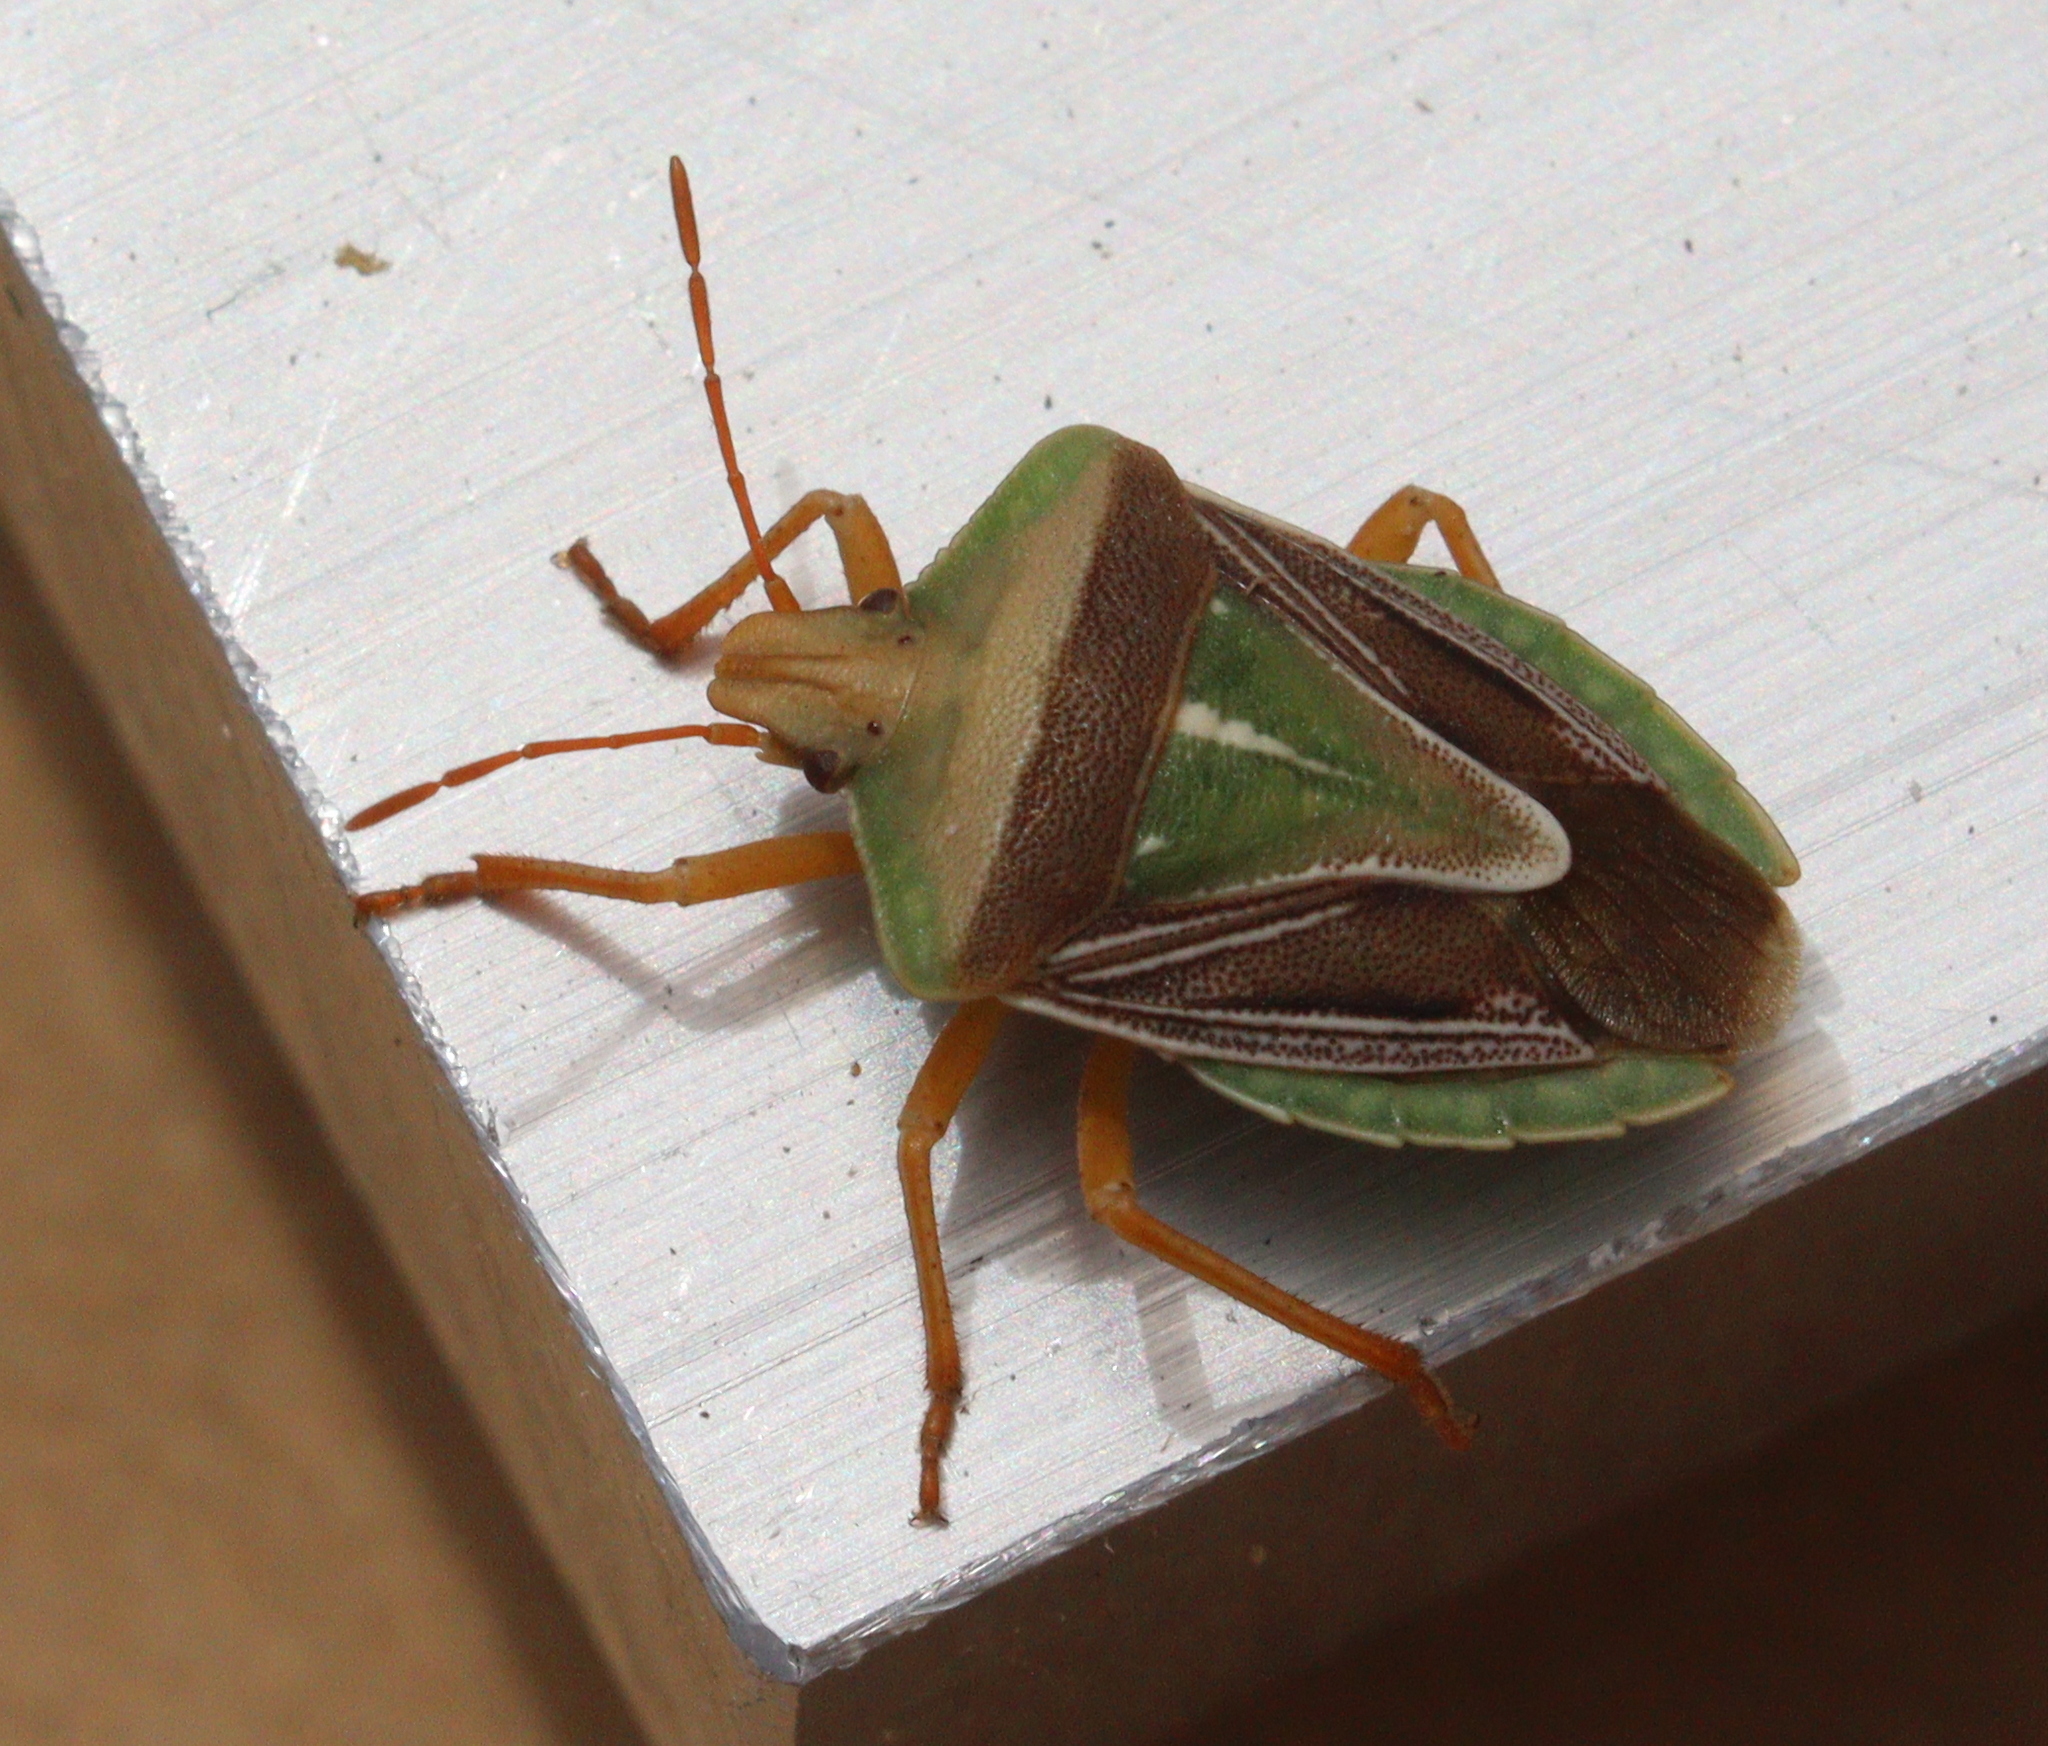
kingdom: Animalia
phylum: Arthropoda
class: Insecta
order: Hemiptera
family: Pentatomidae
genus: Acledra
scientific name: Acledra
